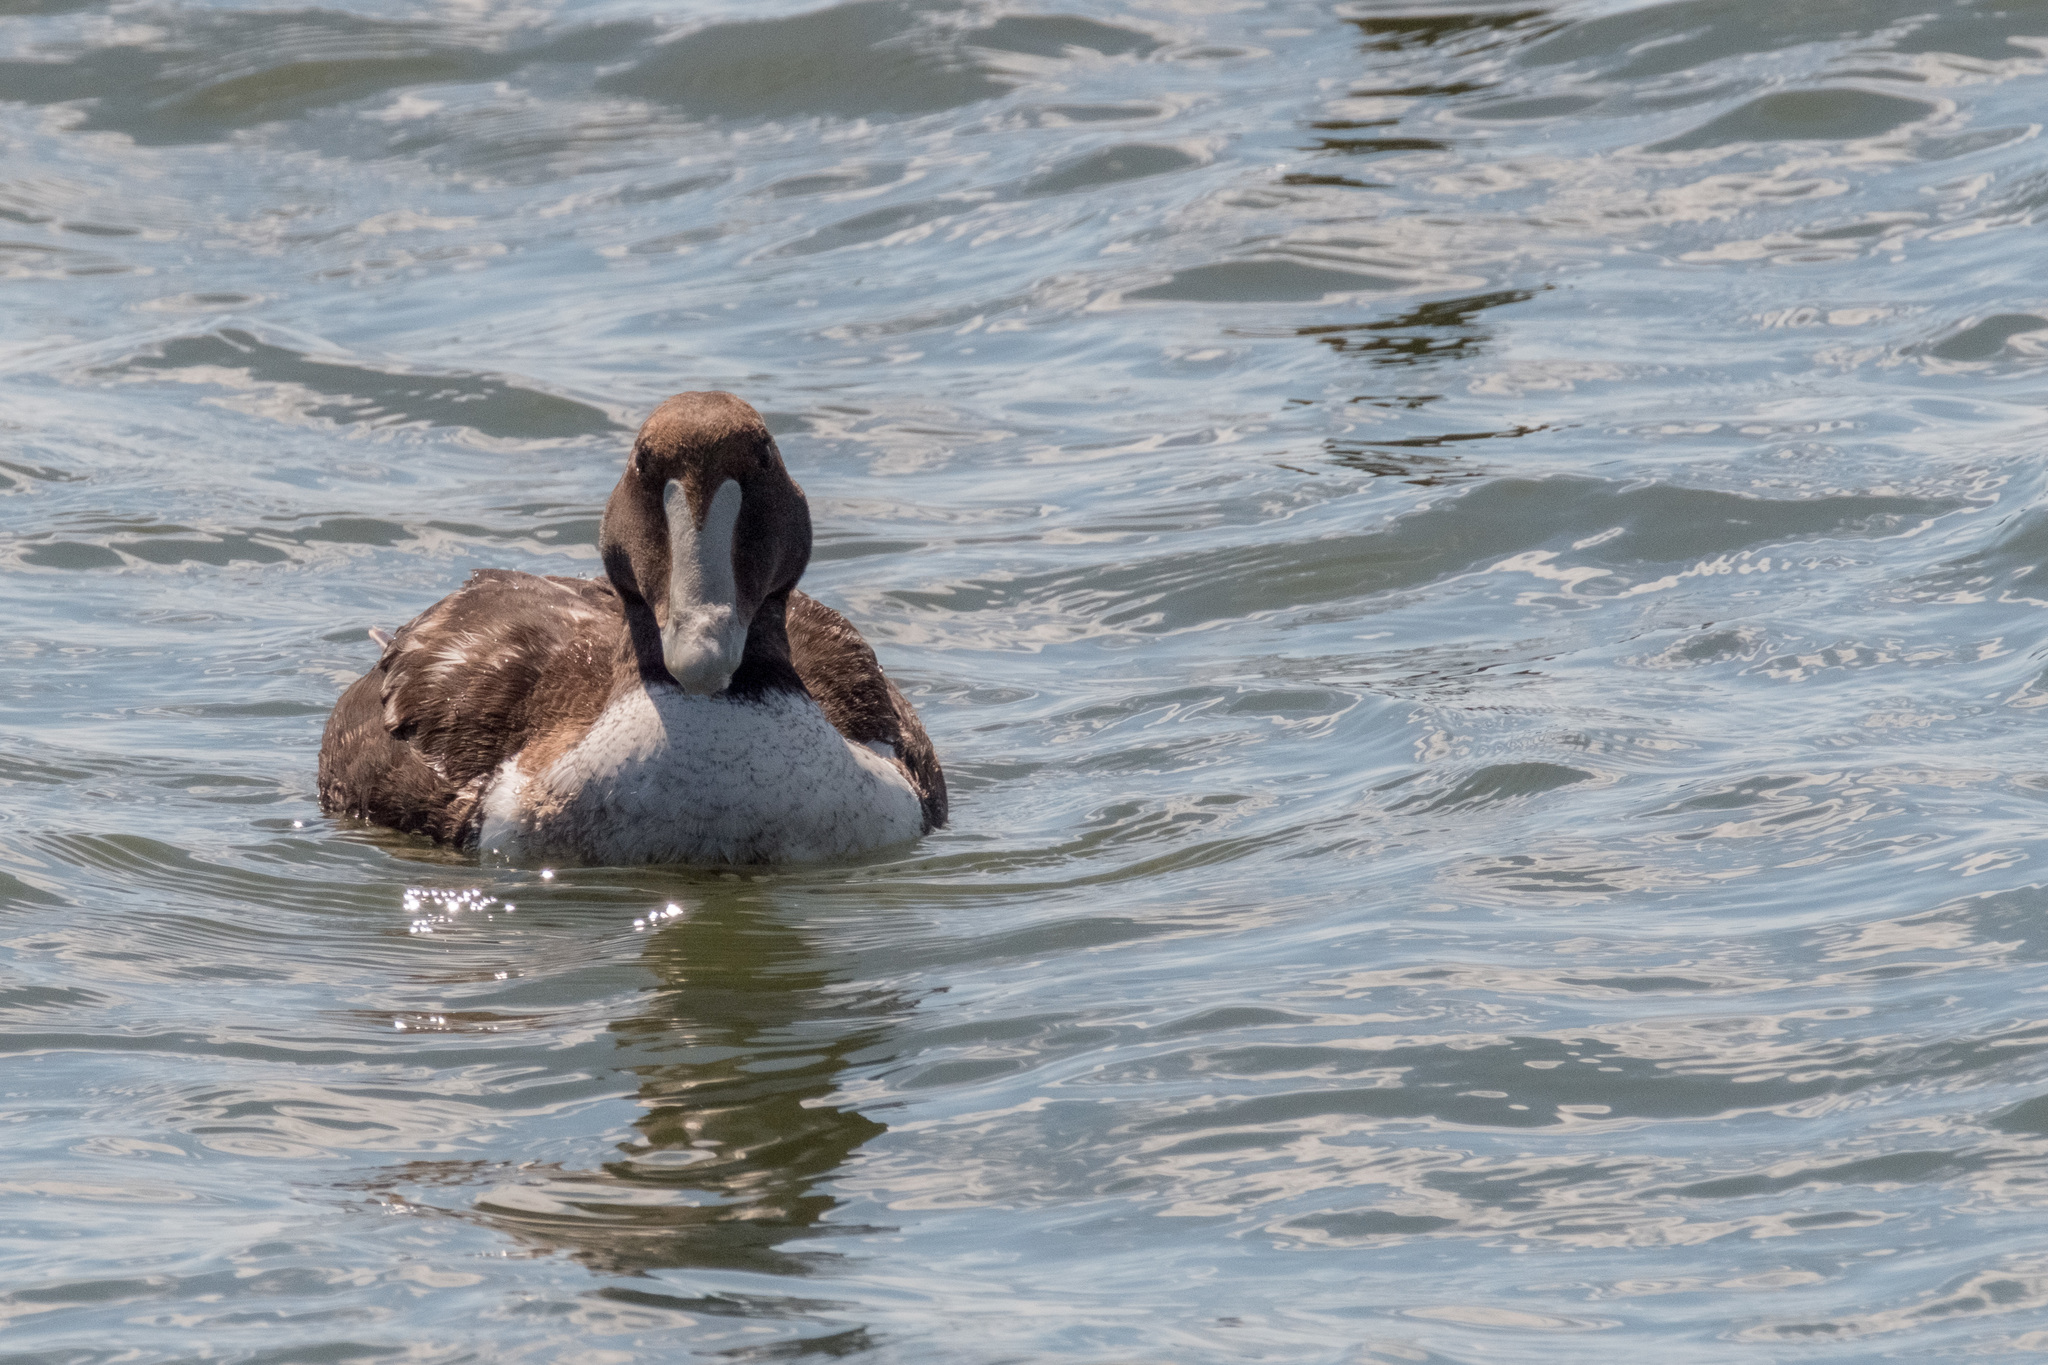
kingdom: Animalia
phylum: Chordata
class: Aves
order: Anseriformes
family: Anatidae
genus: Somateria
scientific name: Somateria mollissima
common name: Common eider
